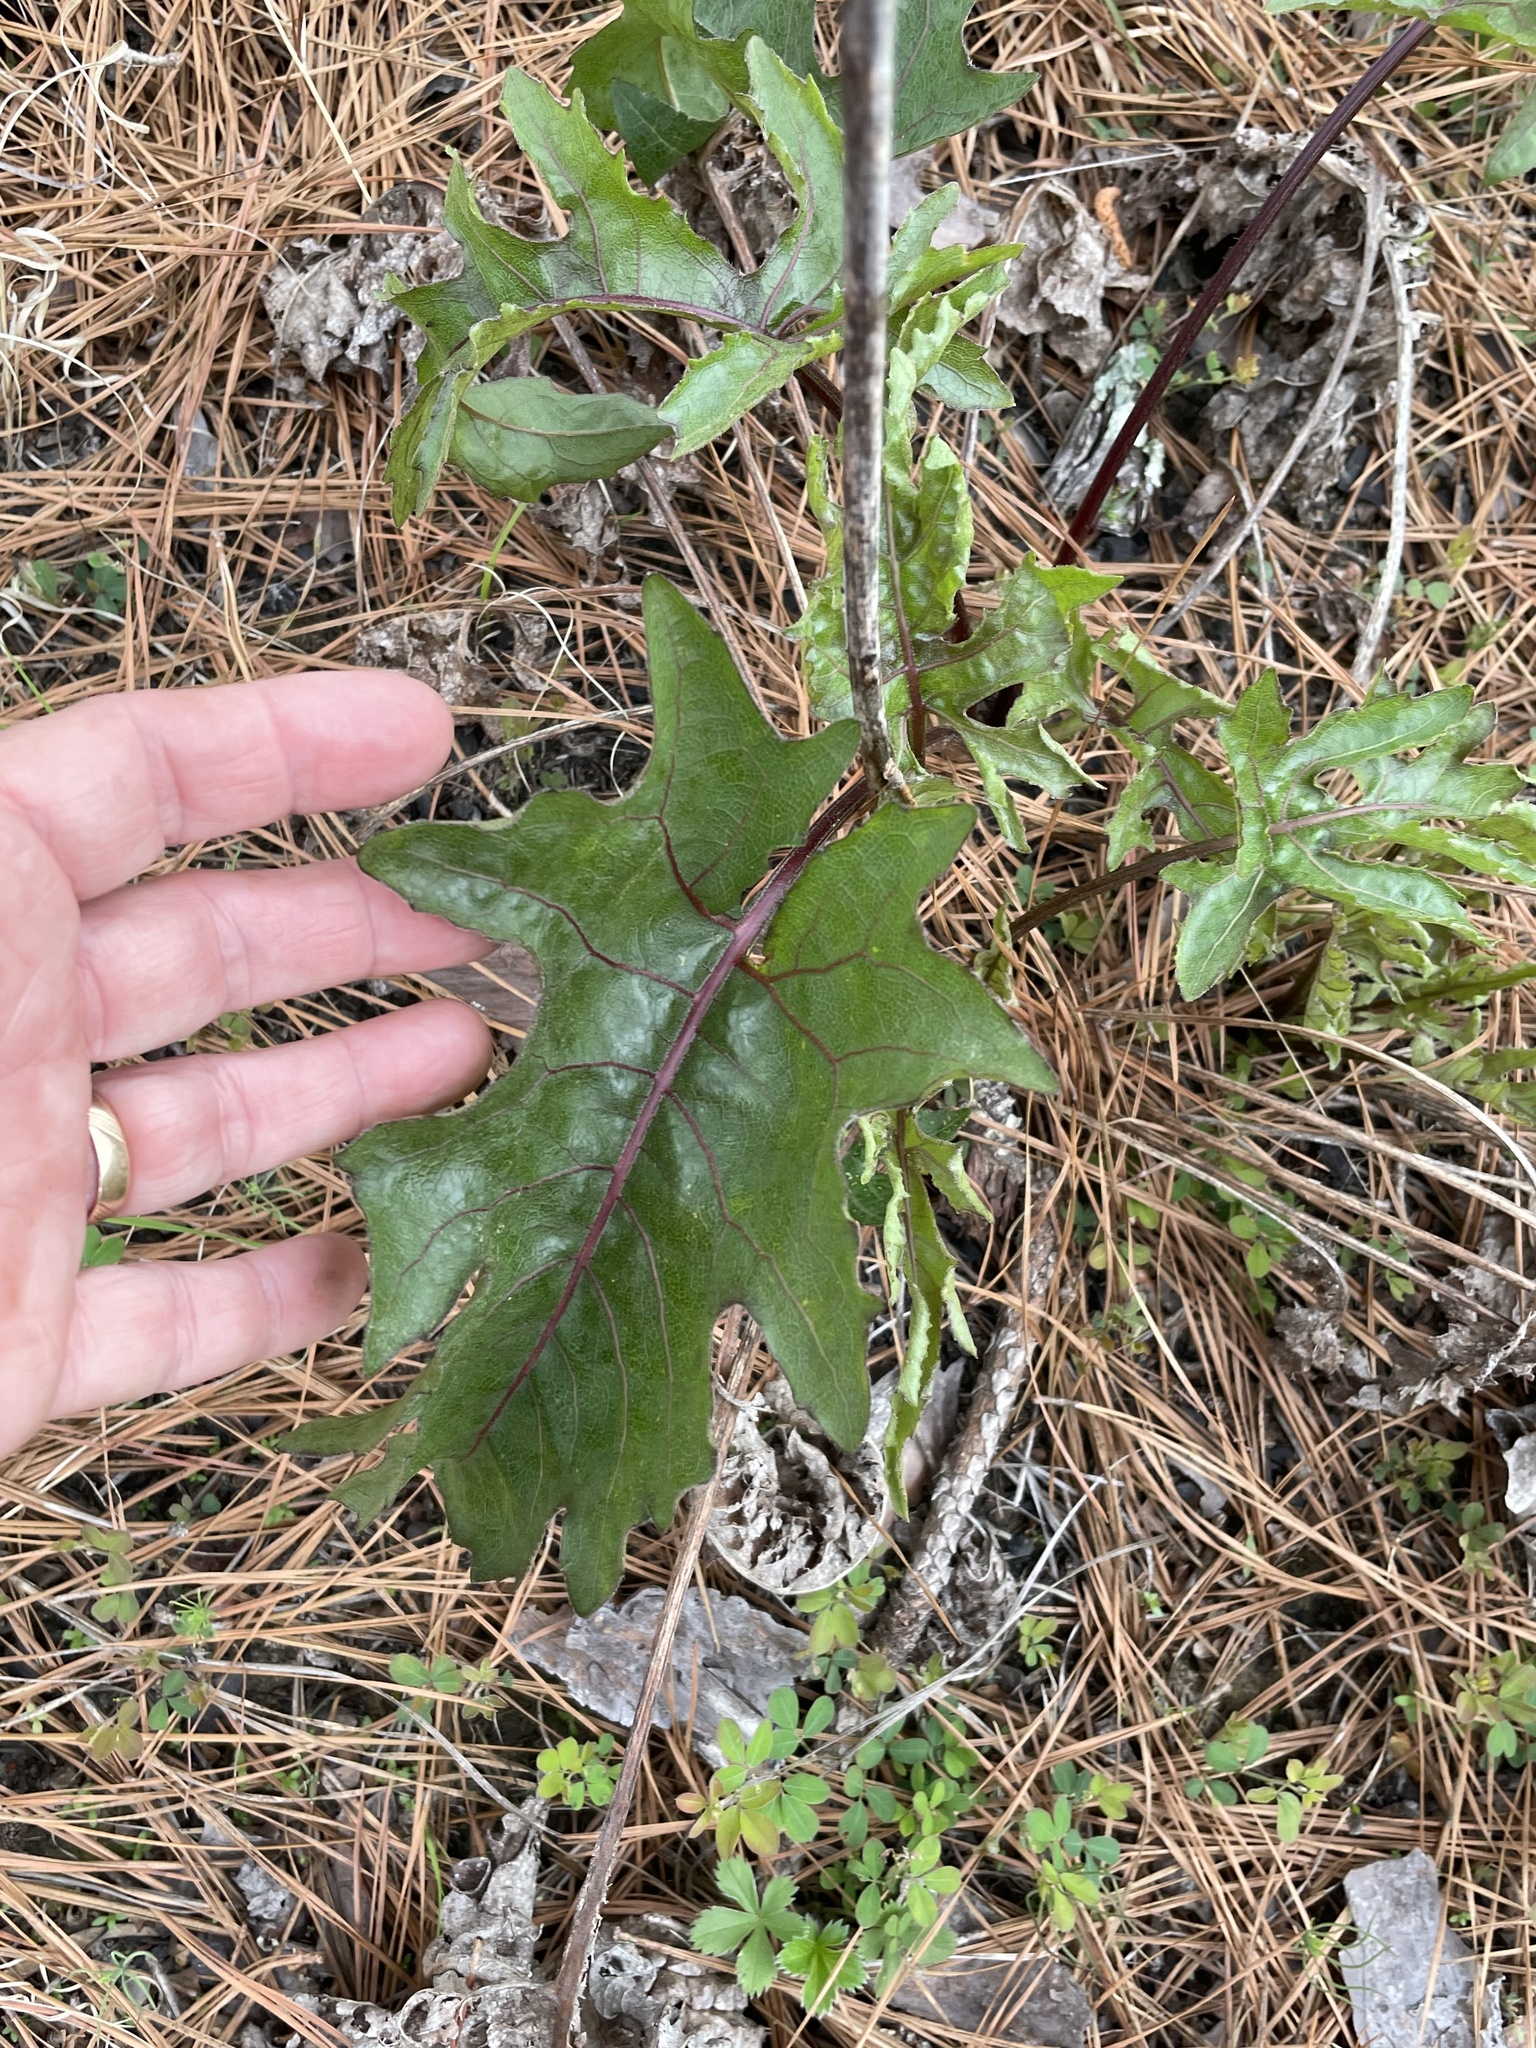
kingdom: Plantae
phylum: Tracheophyta
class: Magnoliopsida
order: Asterales
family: Asteraceae
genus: Silphium
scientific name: Silphium compositum
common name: Lesser basal-leaf rosinweed
